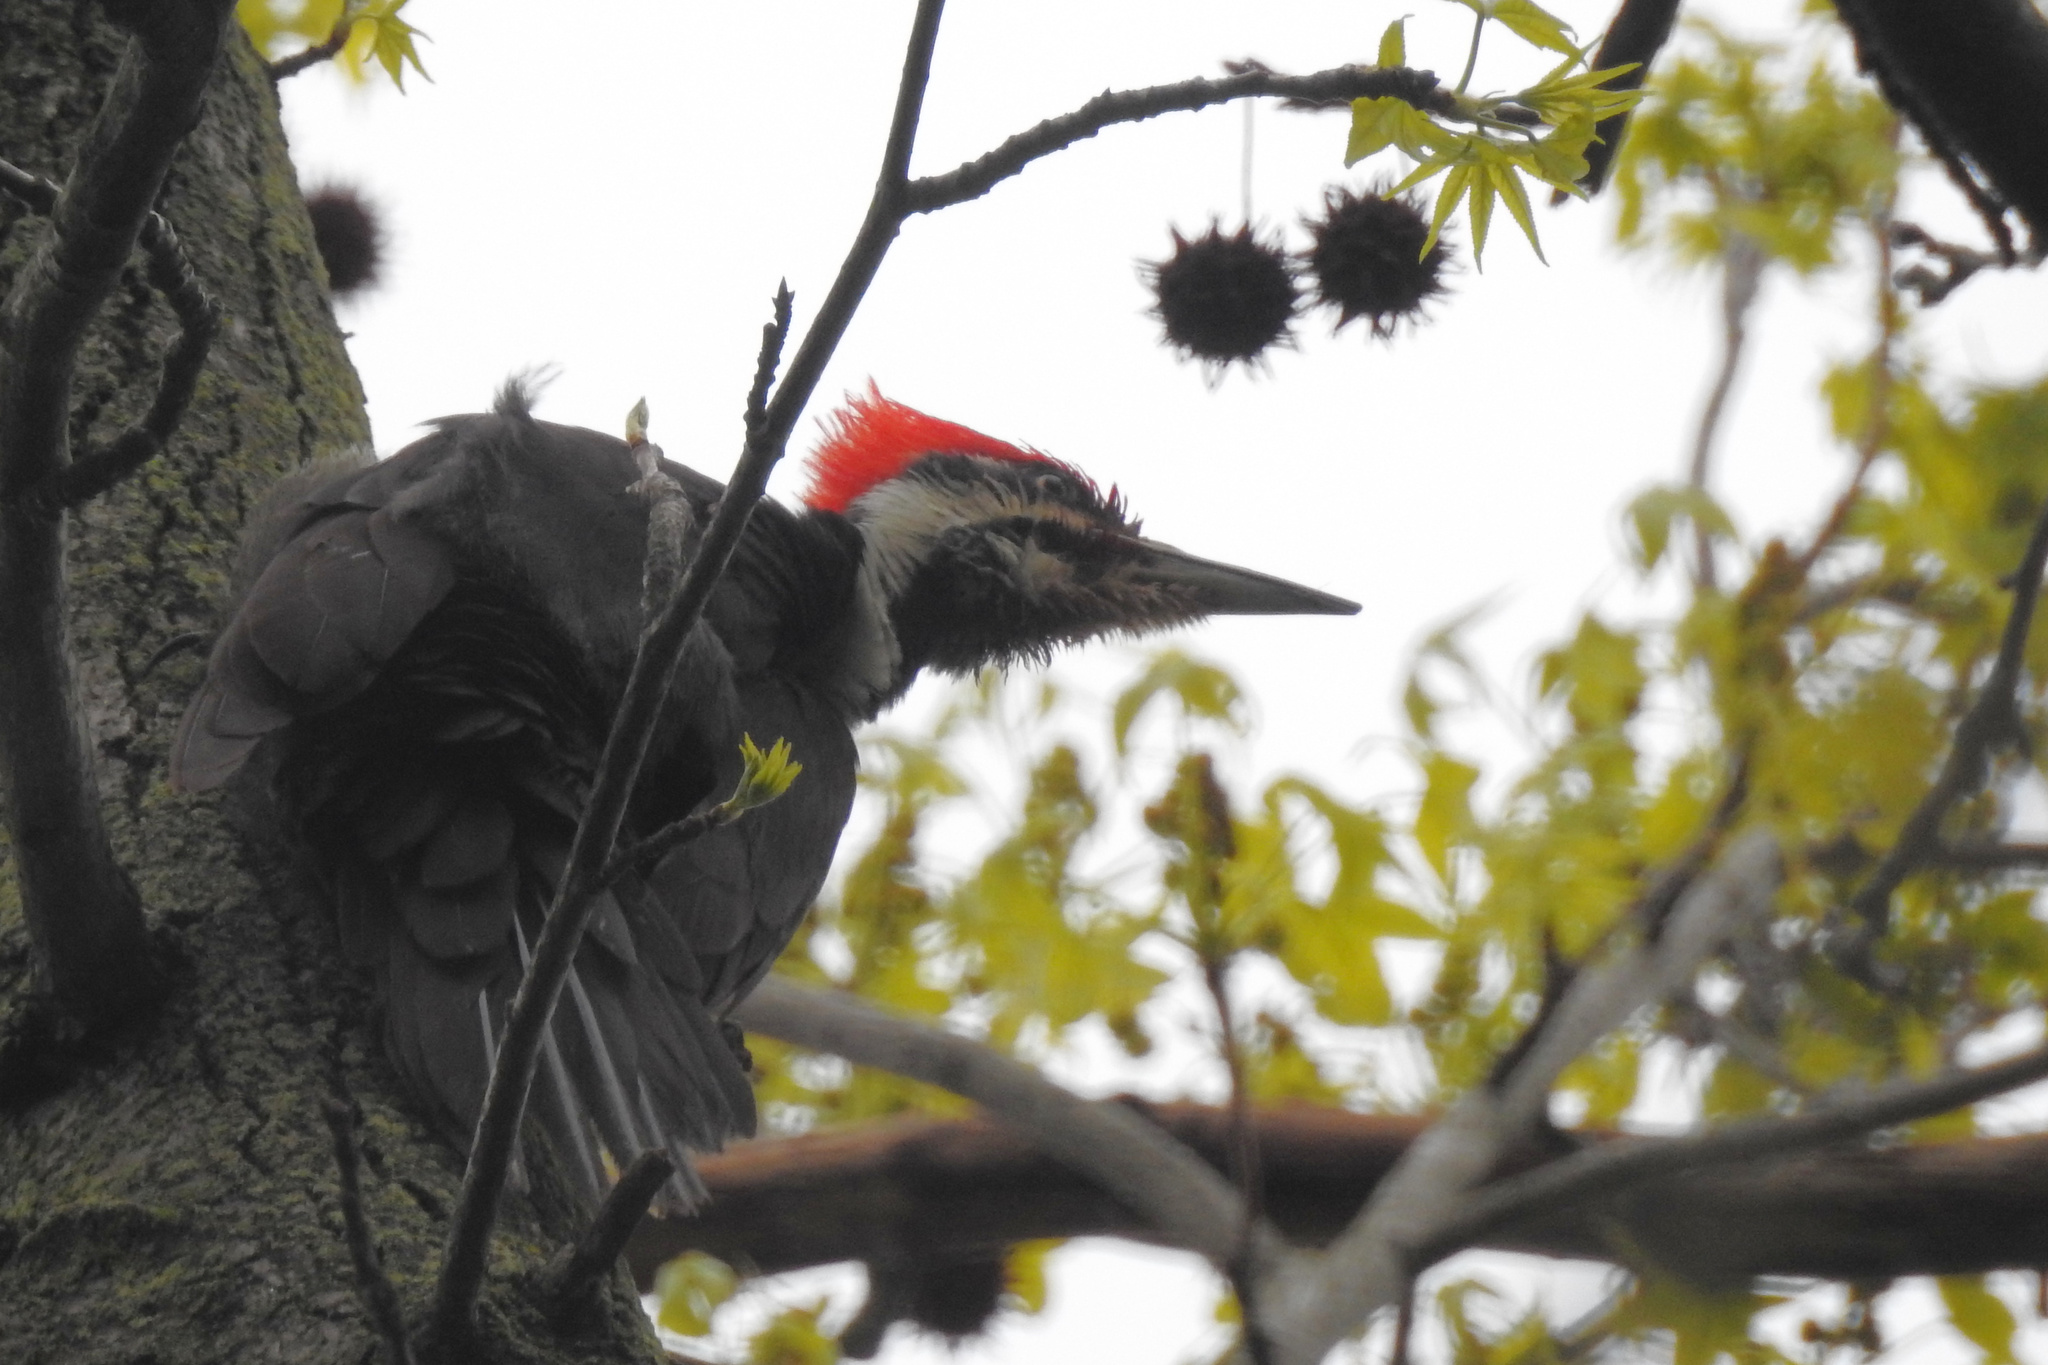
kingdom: Animalia
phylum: Chordata
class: Aves
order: Piciformes
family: Picidae
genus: Dryocopus
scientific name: Dryocopus pileatus
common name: Pileated woodpecker
